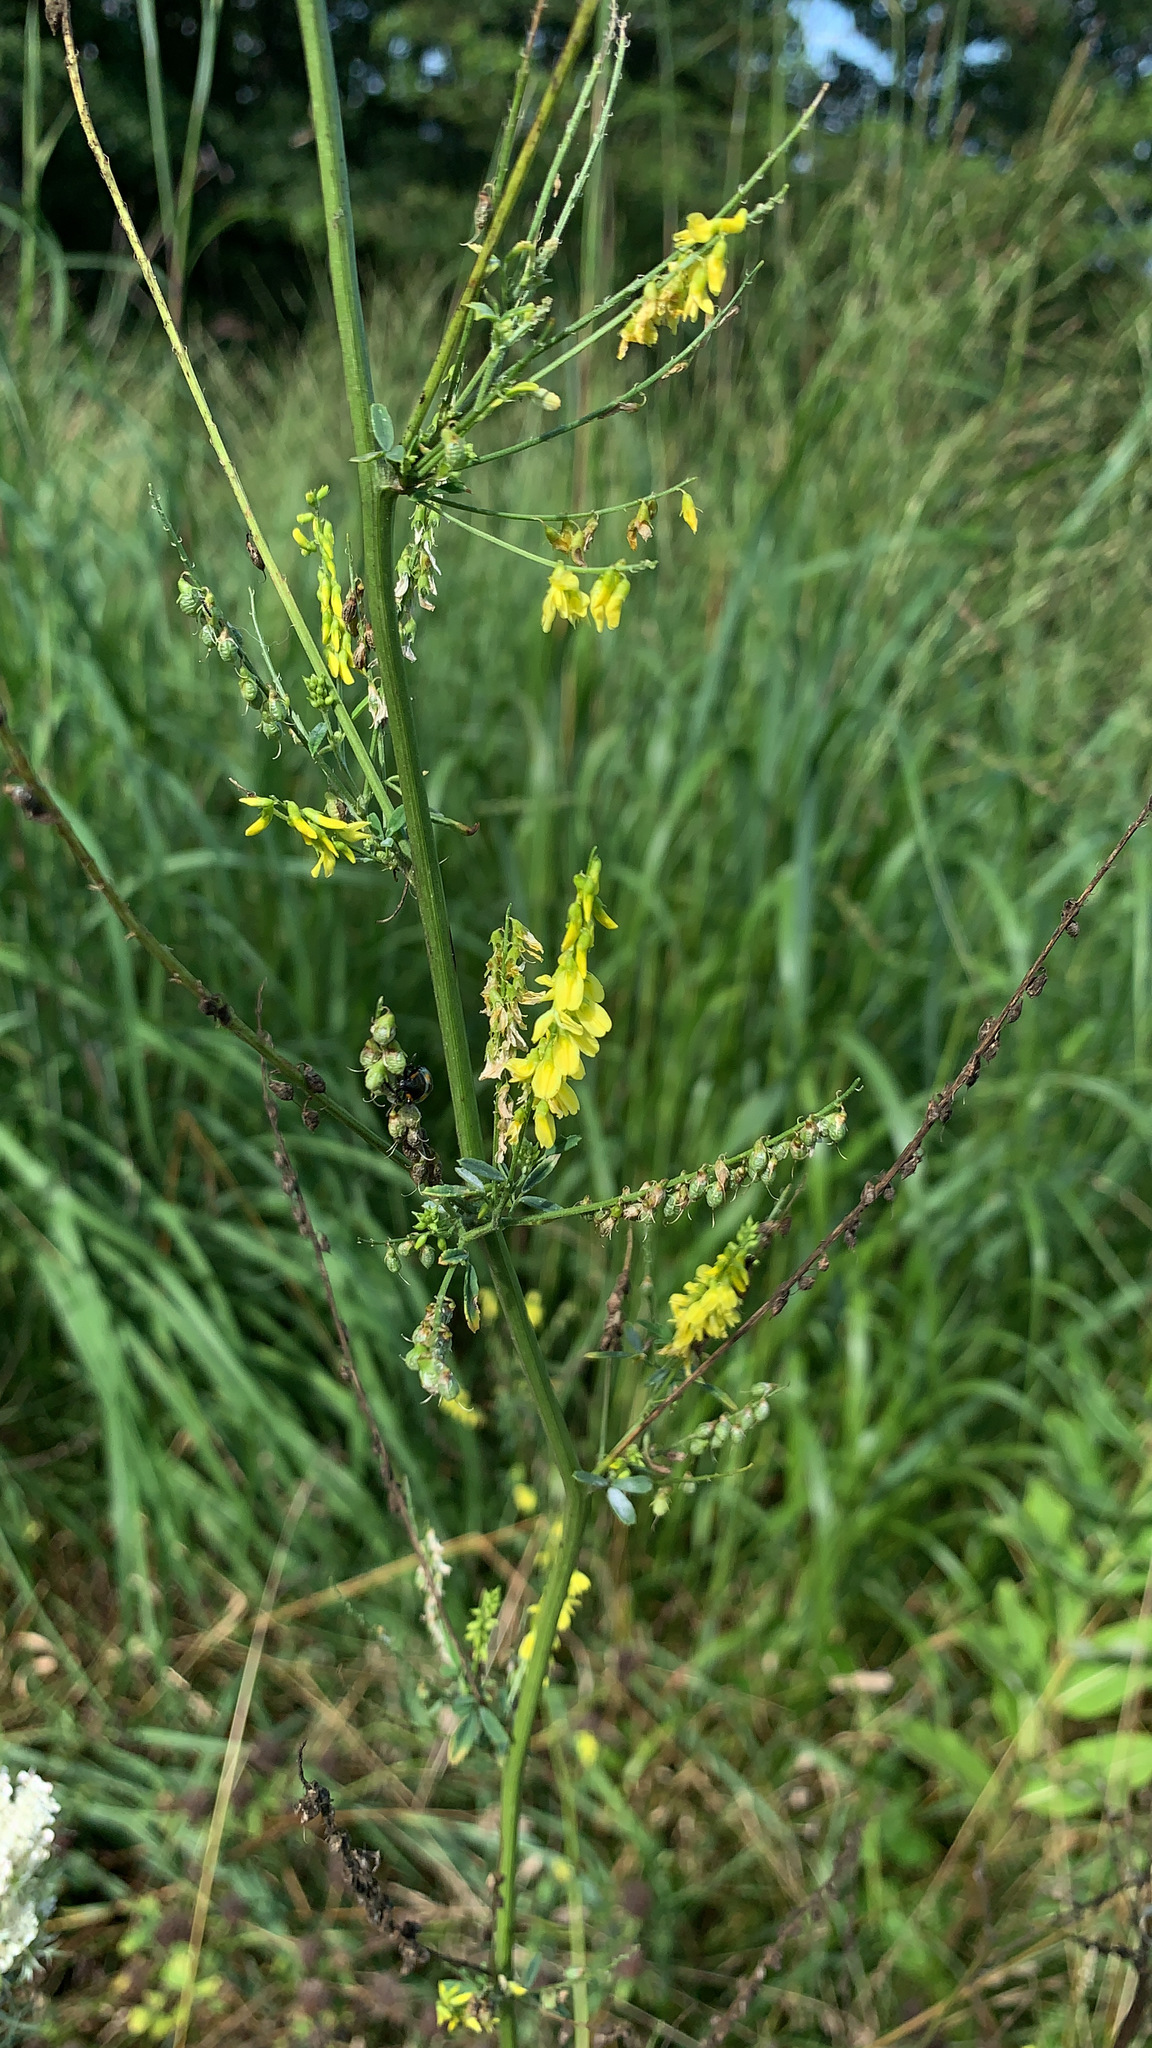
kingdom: Plantae
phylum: Tracheophyta
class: Magnoliopsida
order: Fabales
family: Fabaceae
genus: Melilotus
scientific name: Melilotus officinalis
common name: Sweetclover
